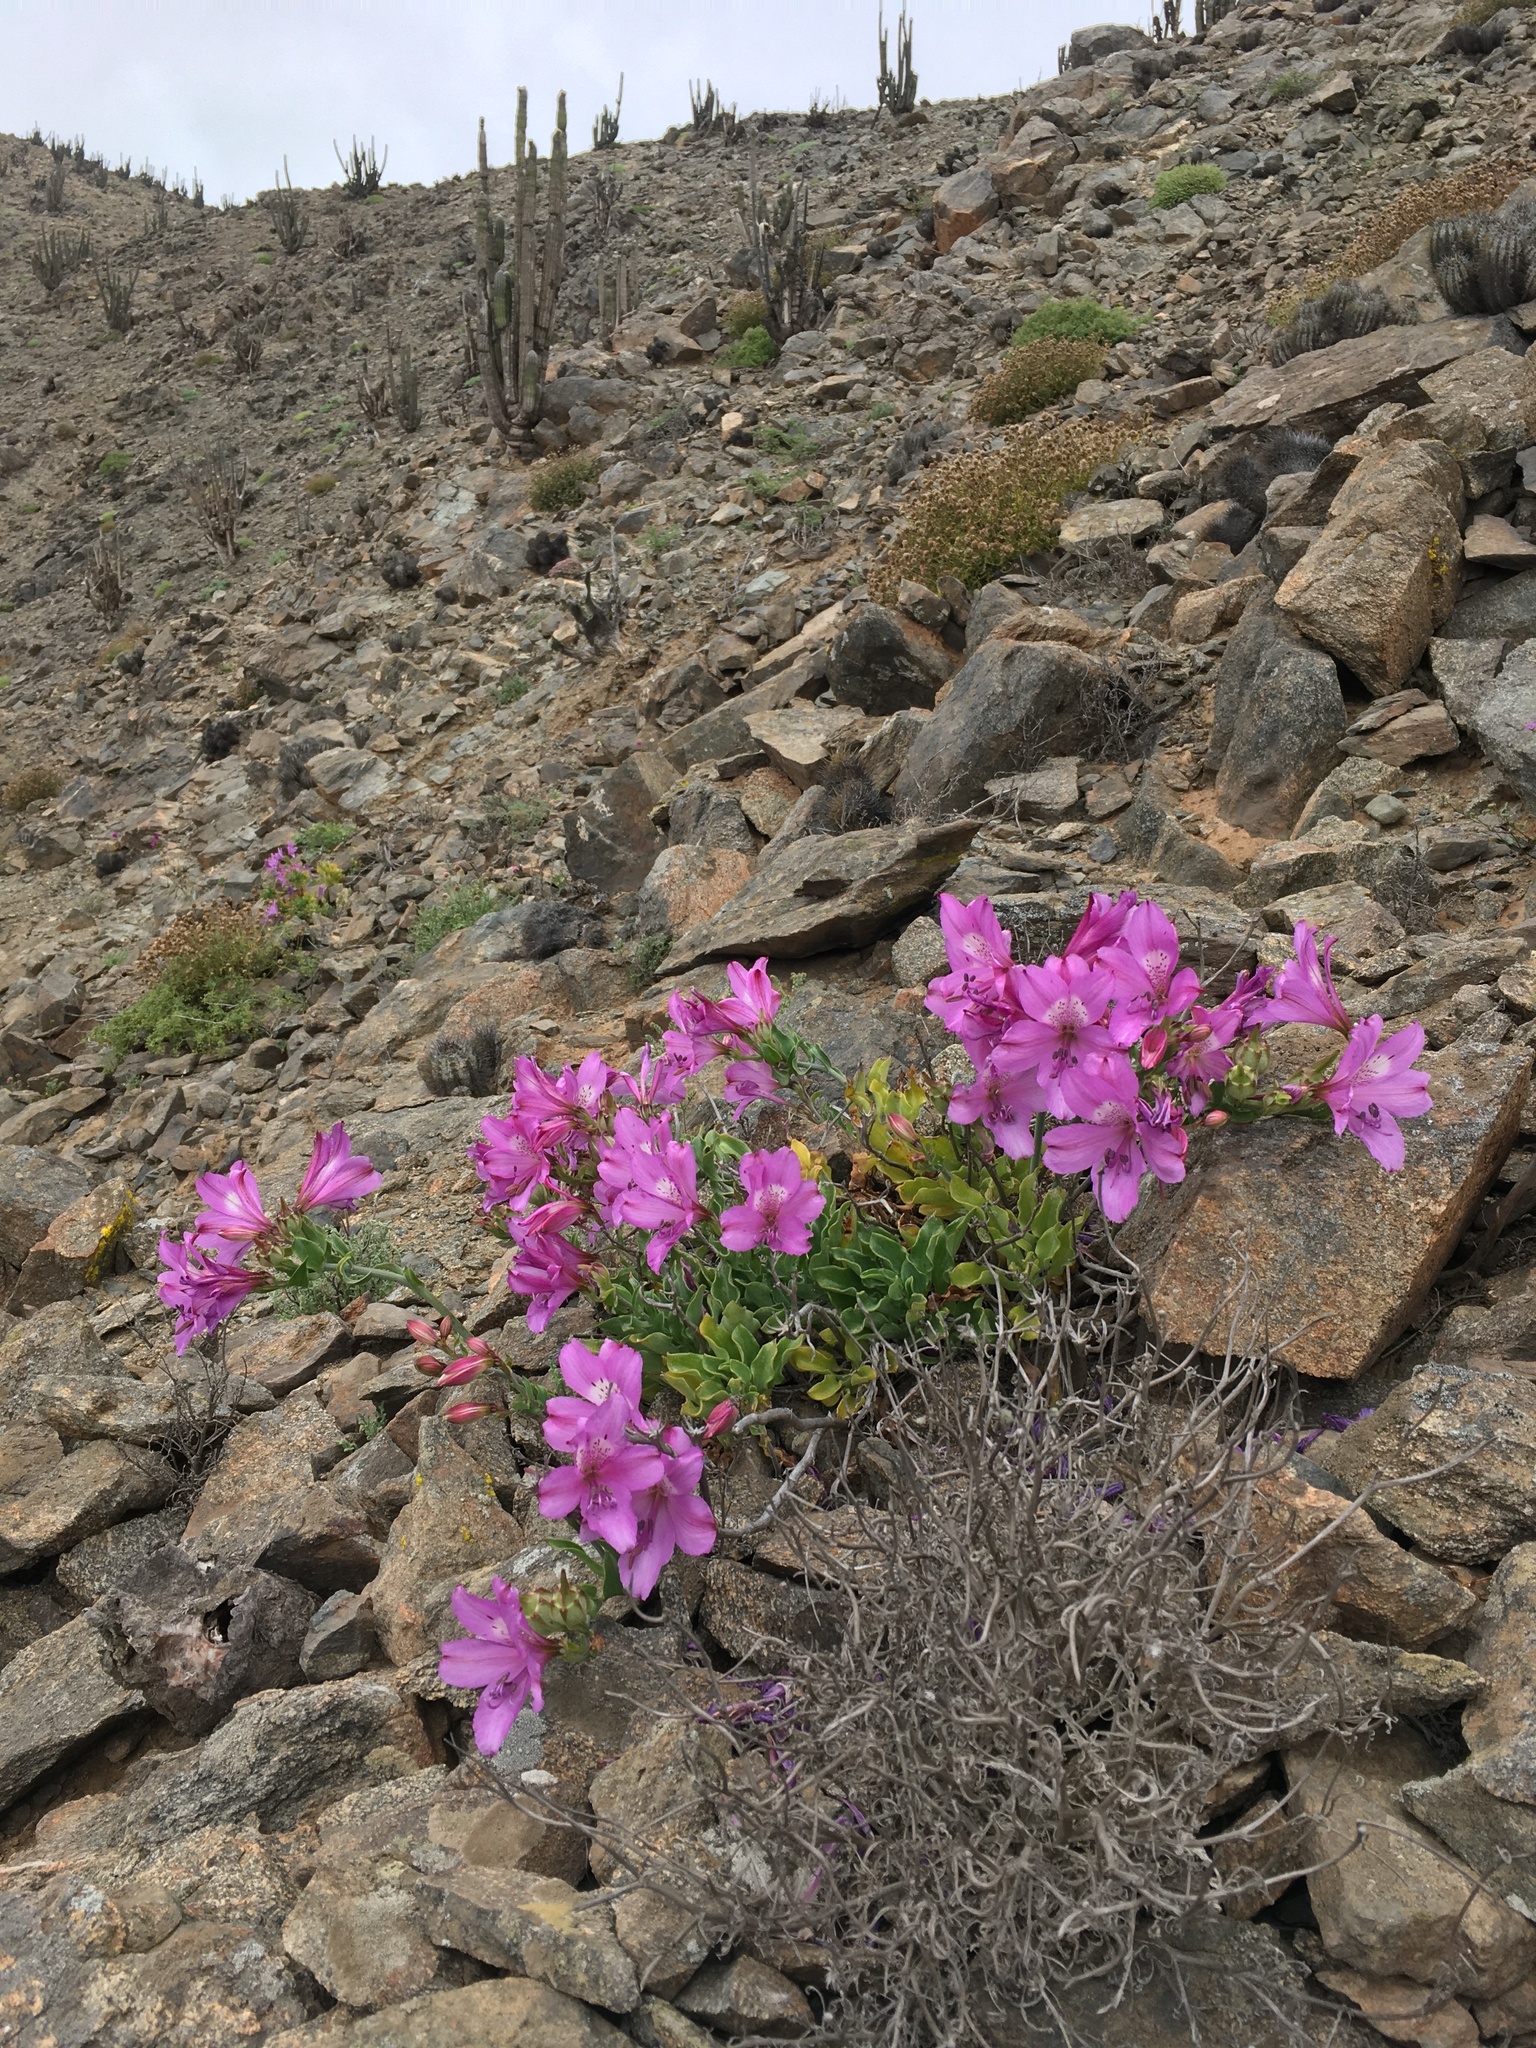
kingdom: Plantae
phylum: Tracheophyta
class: Liliopsida
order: Liliales
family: Alstroemeriaceae
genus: Alstroemeria
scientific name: Alstroemeria violacea
